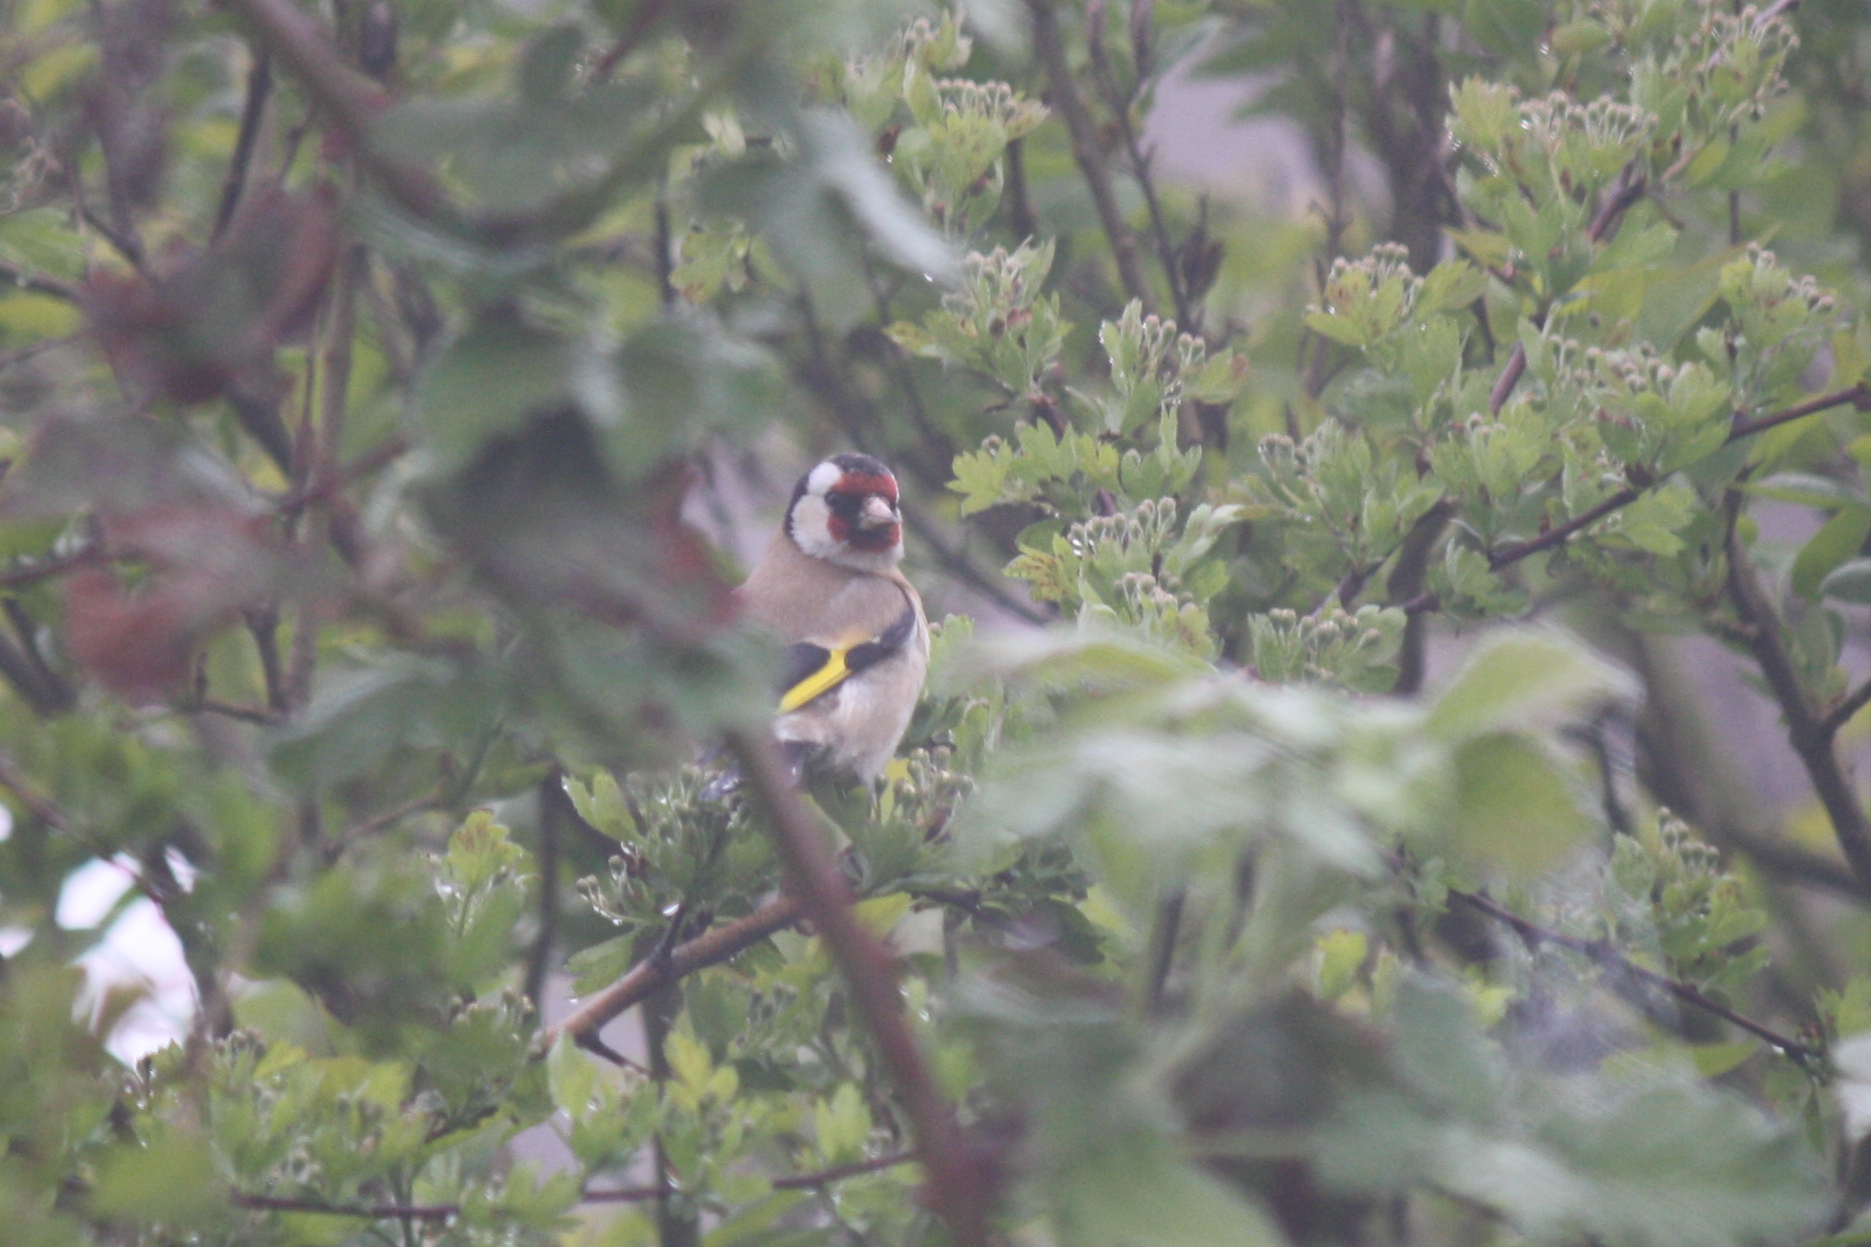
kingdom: Animalia
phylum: Chordata
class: Aves
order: Passeriformes
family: Fringillidae
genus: Carduelis
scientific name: Carduelis carduelis
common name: European goldfinch
